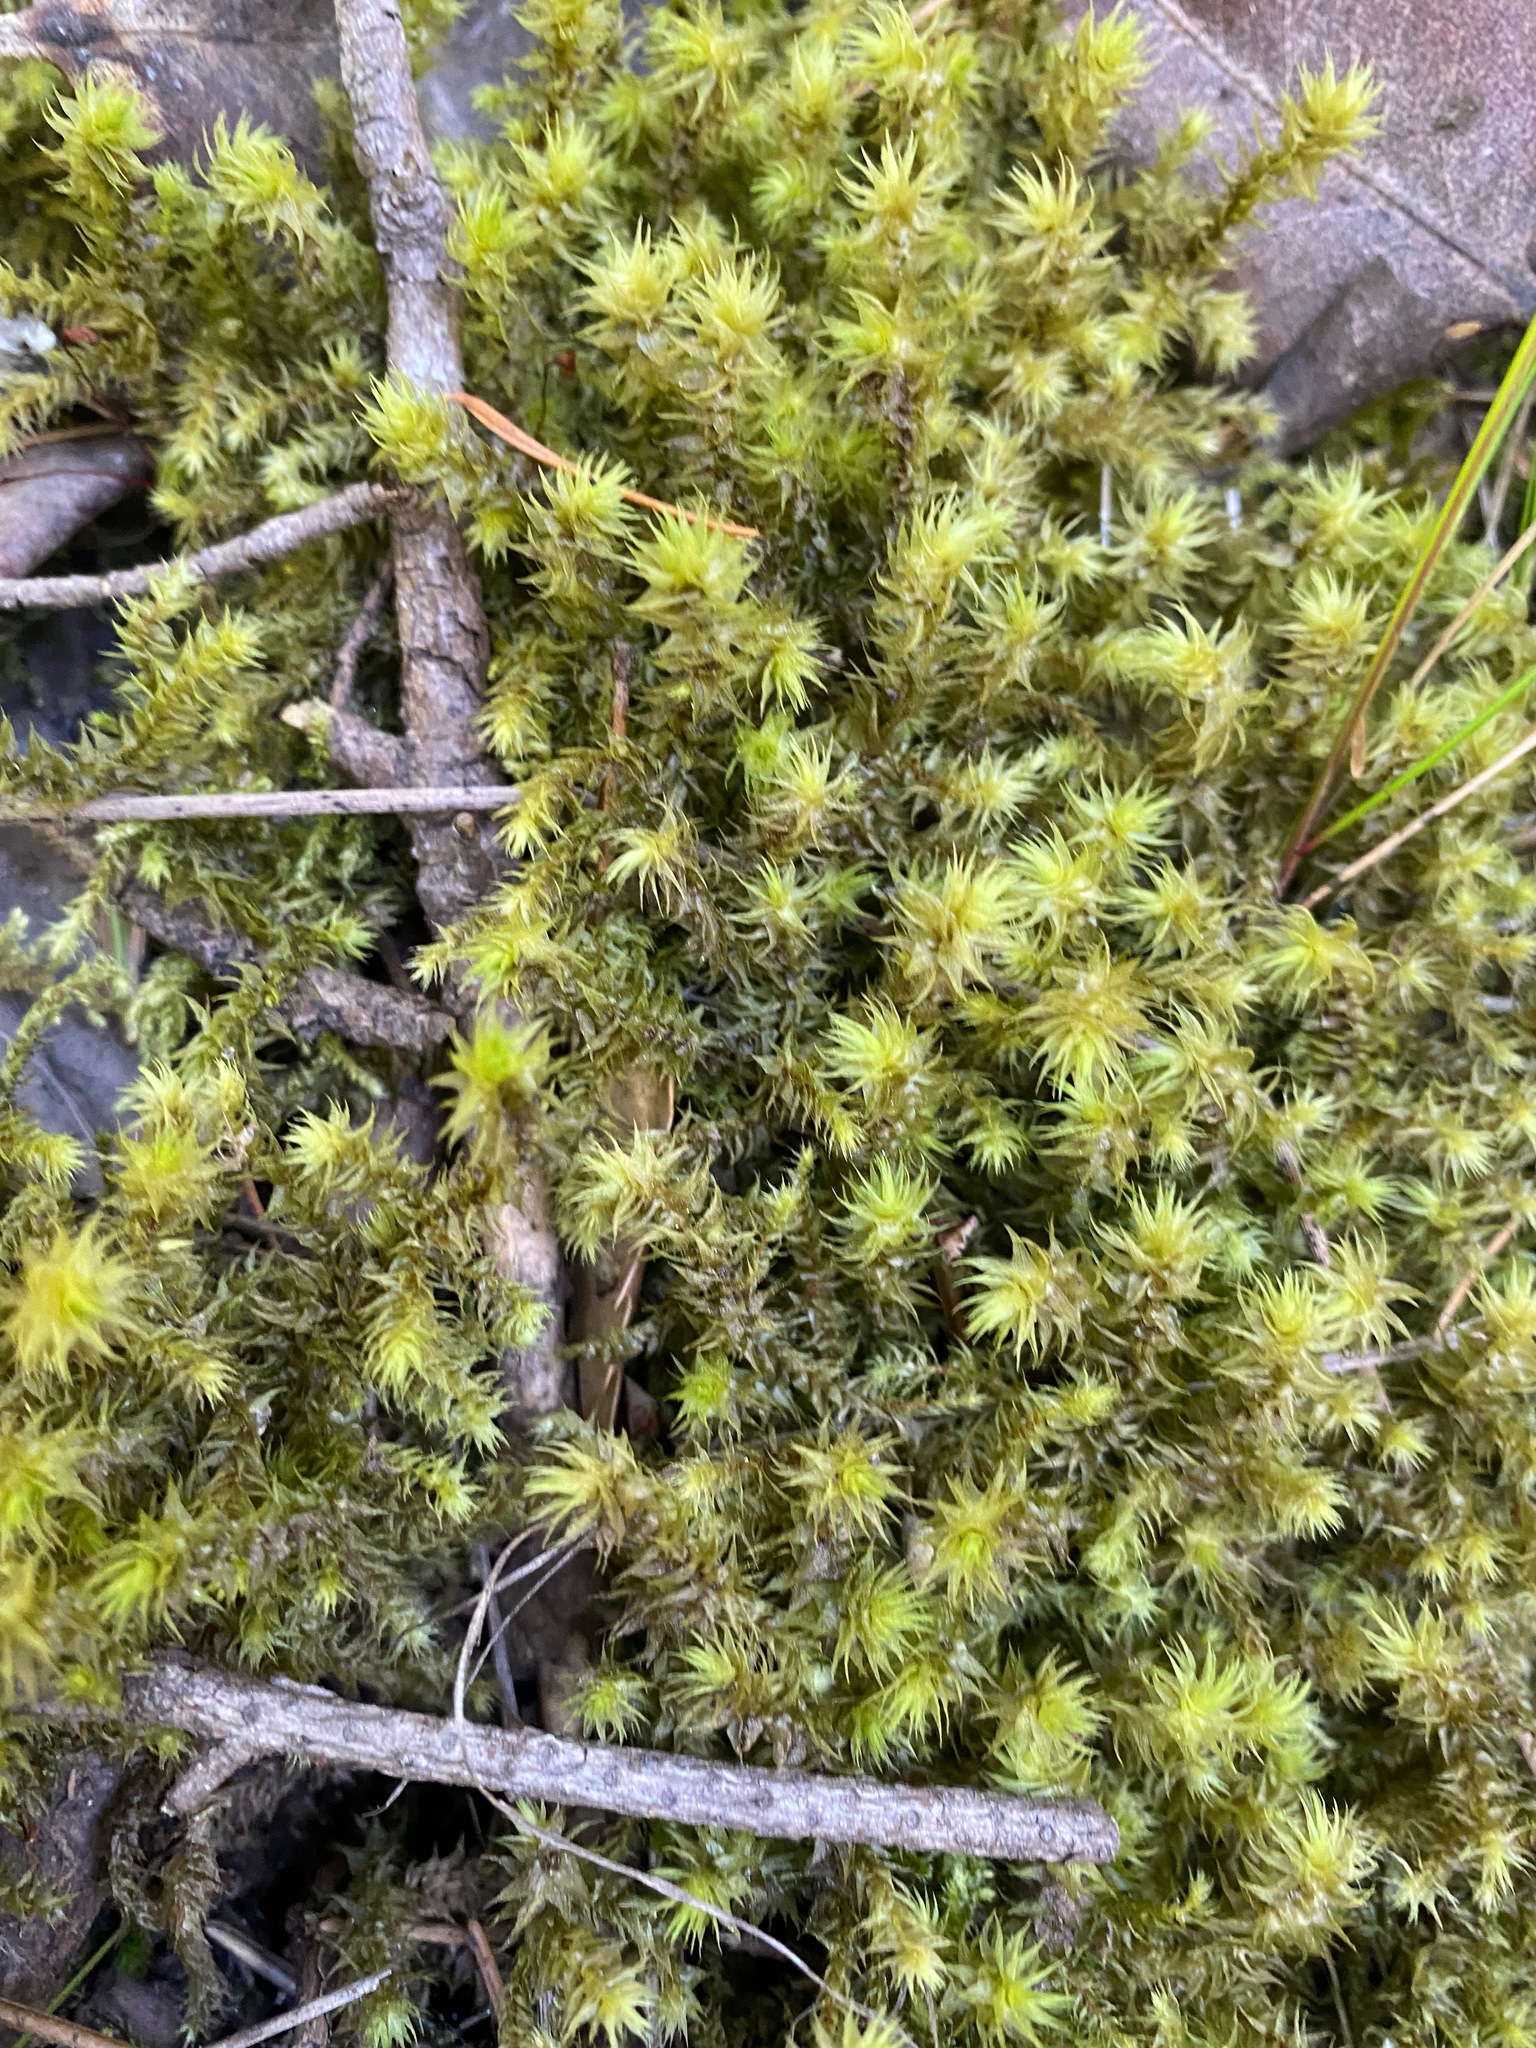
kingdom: Plantae
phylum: Bryophyta
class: Bryopsida
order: Hypnales
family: Hylocomiaceae
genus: Hylocomiadelphus
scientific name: Hylocomiadelphus triquetrus
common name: Rough goose neck moss
